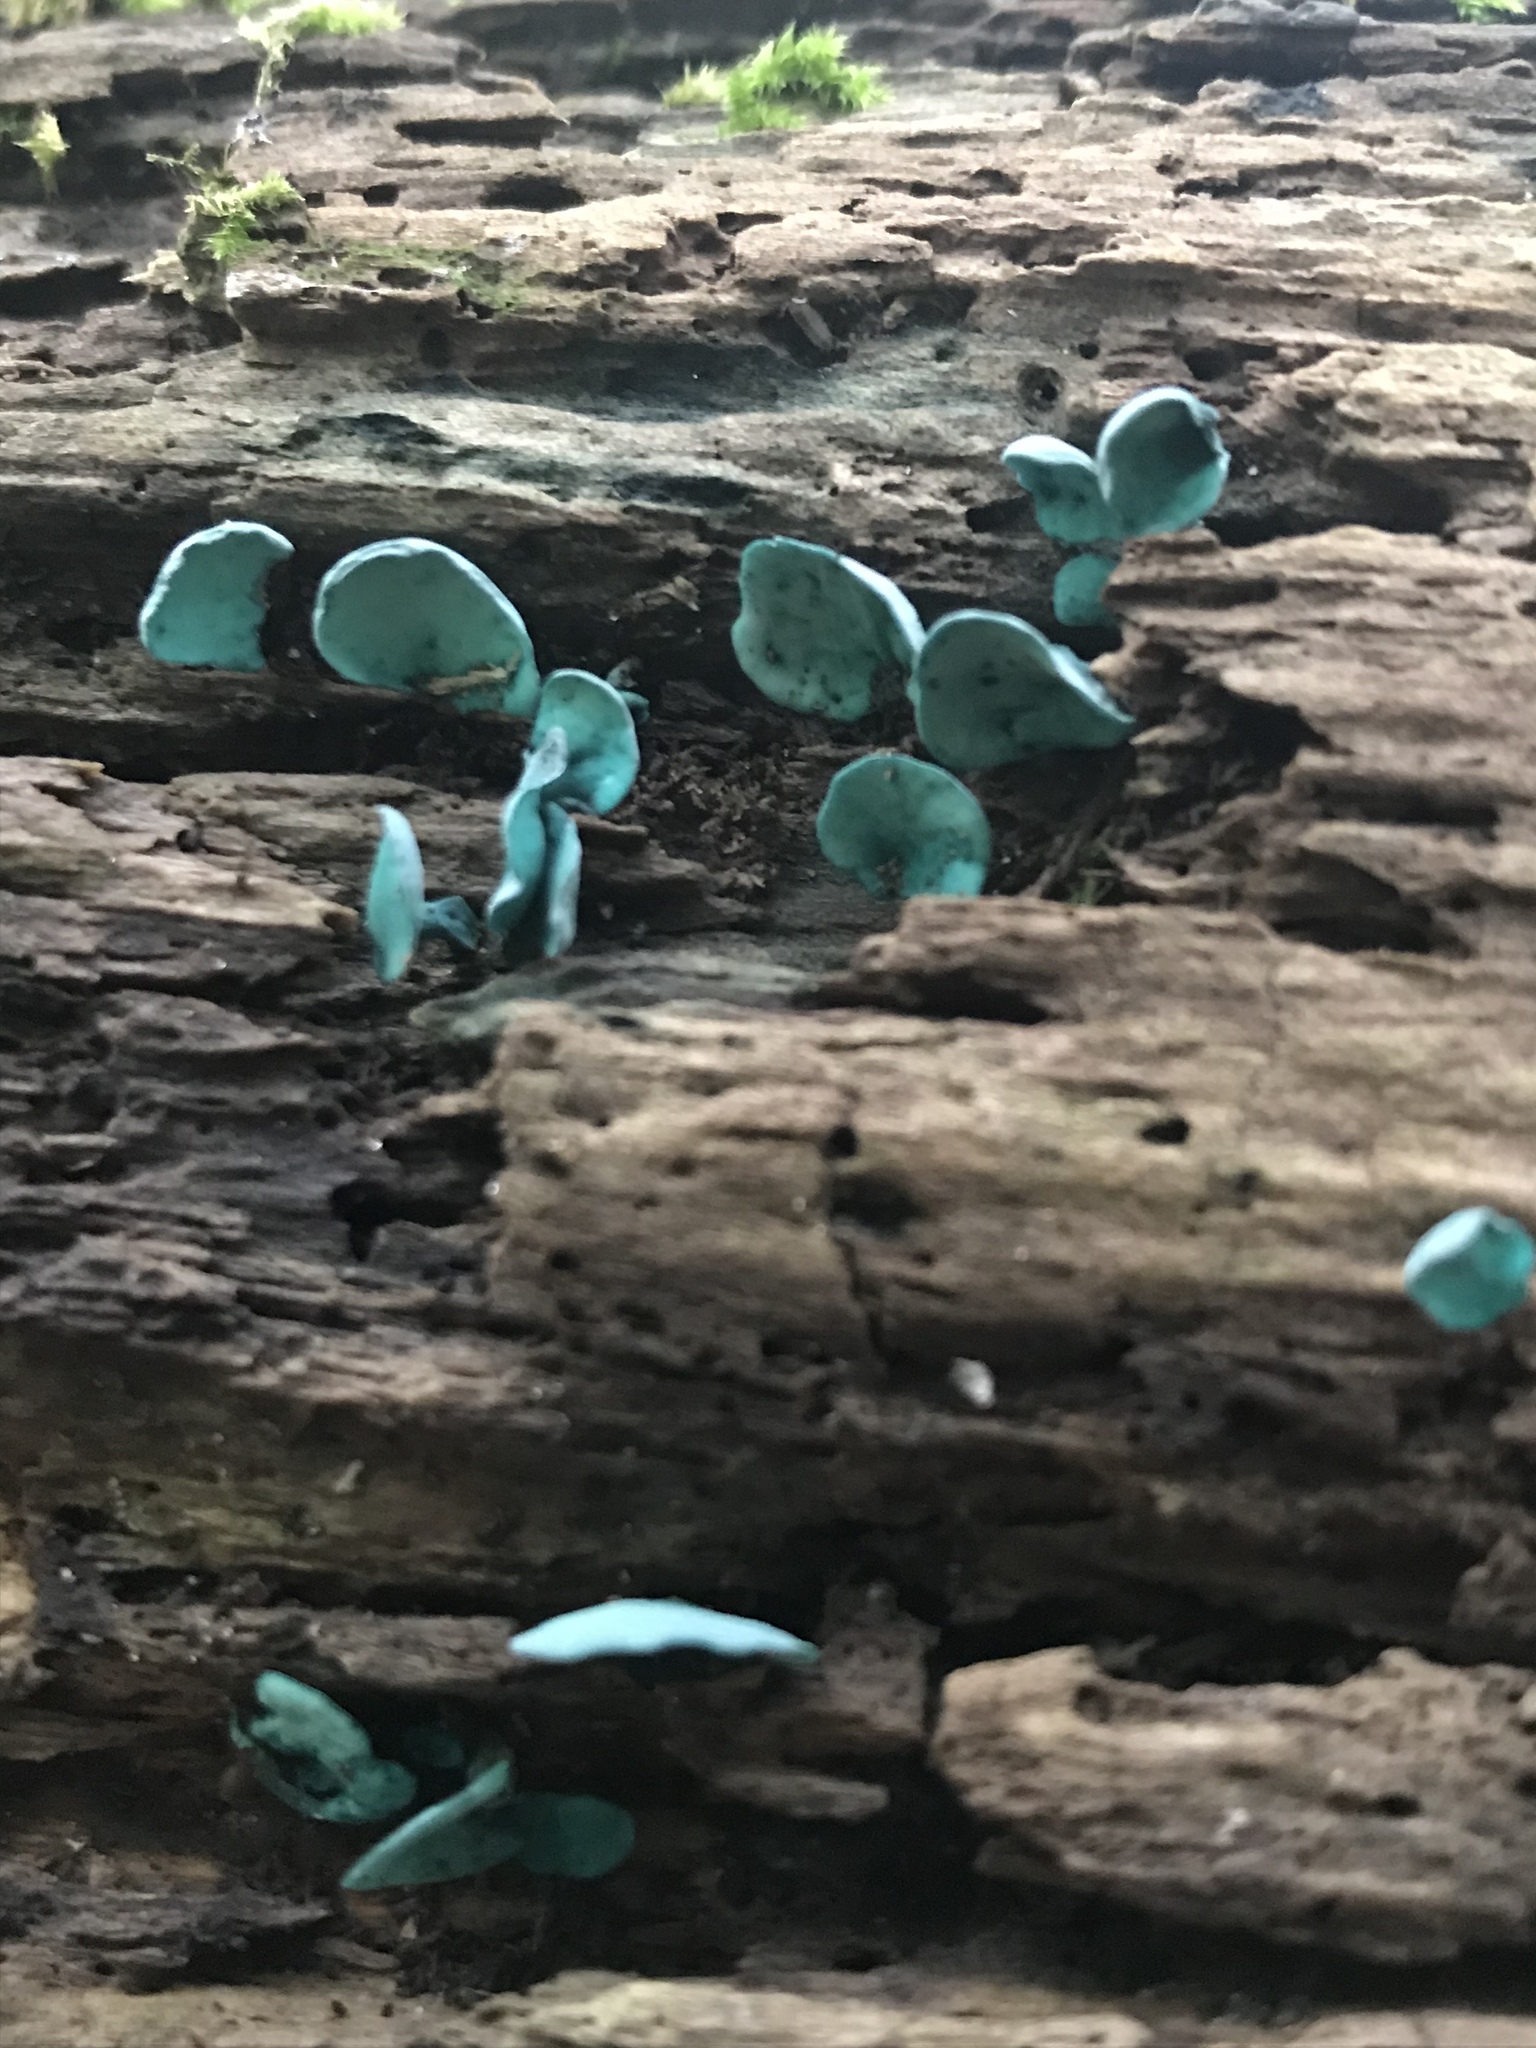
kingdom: Fungi
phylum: Ascomycota
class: Leotiomycetes
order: Helotiales
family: Chlorociboriaceae
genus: Chlorociboria
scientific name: Chlorociboria
